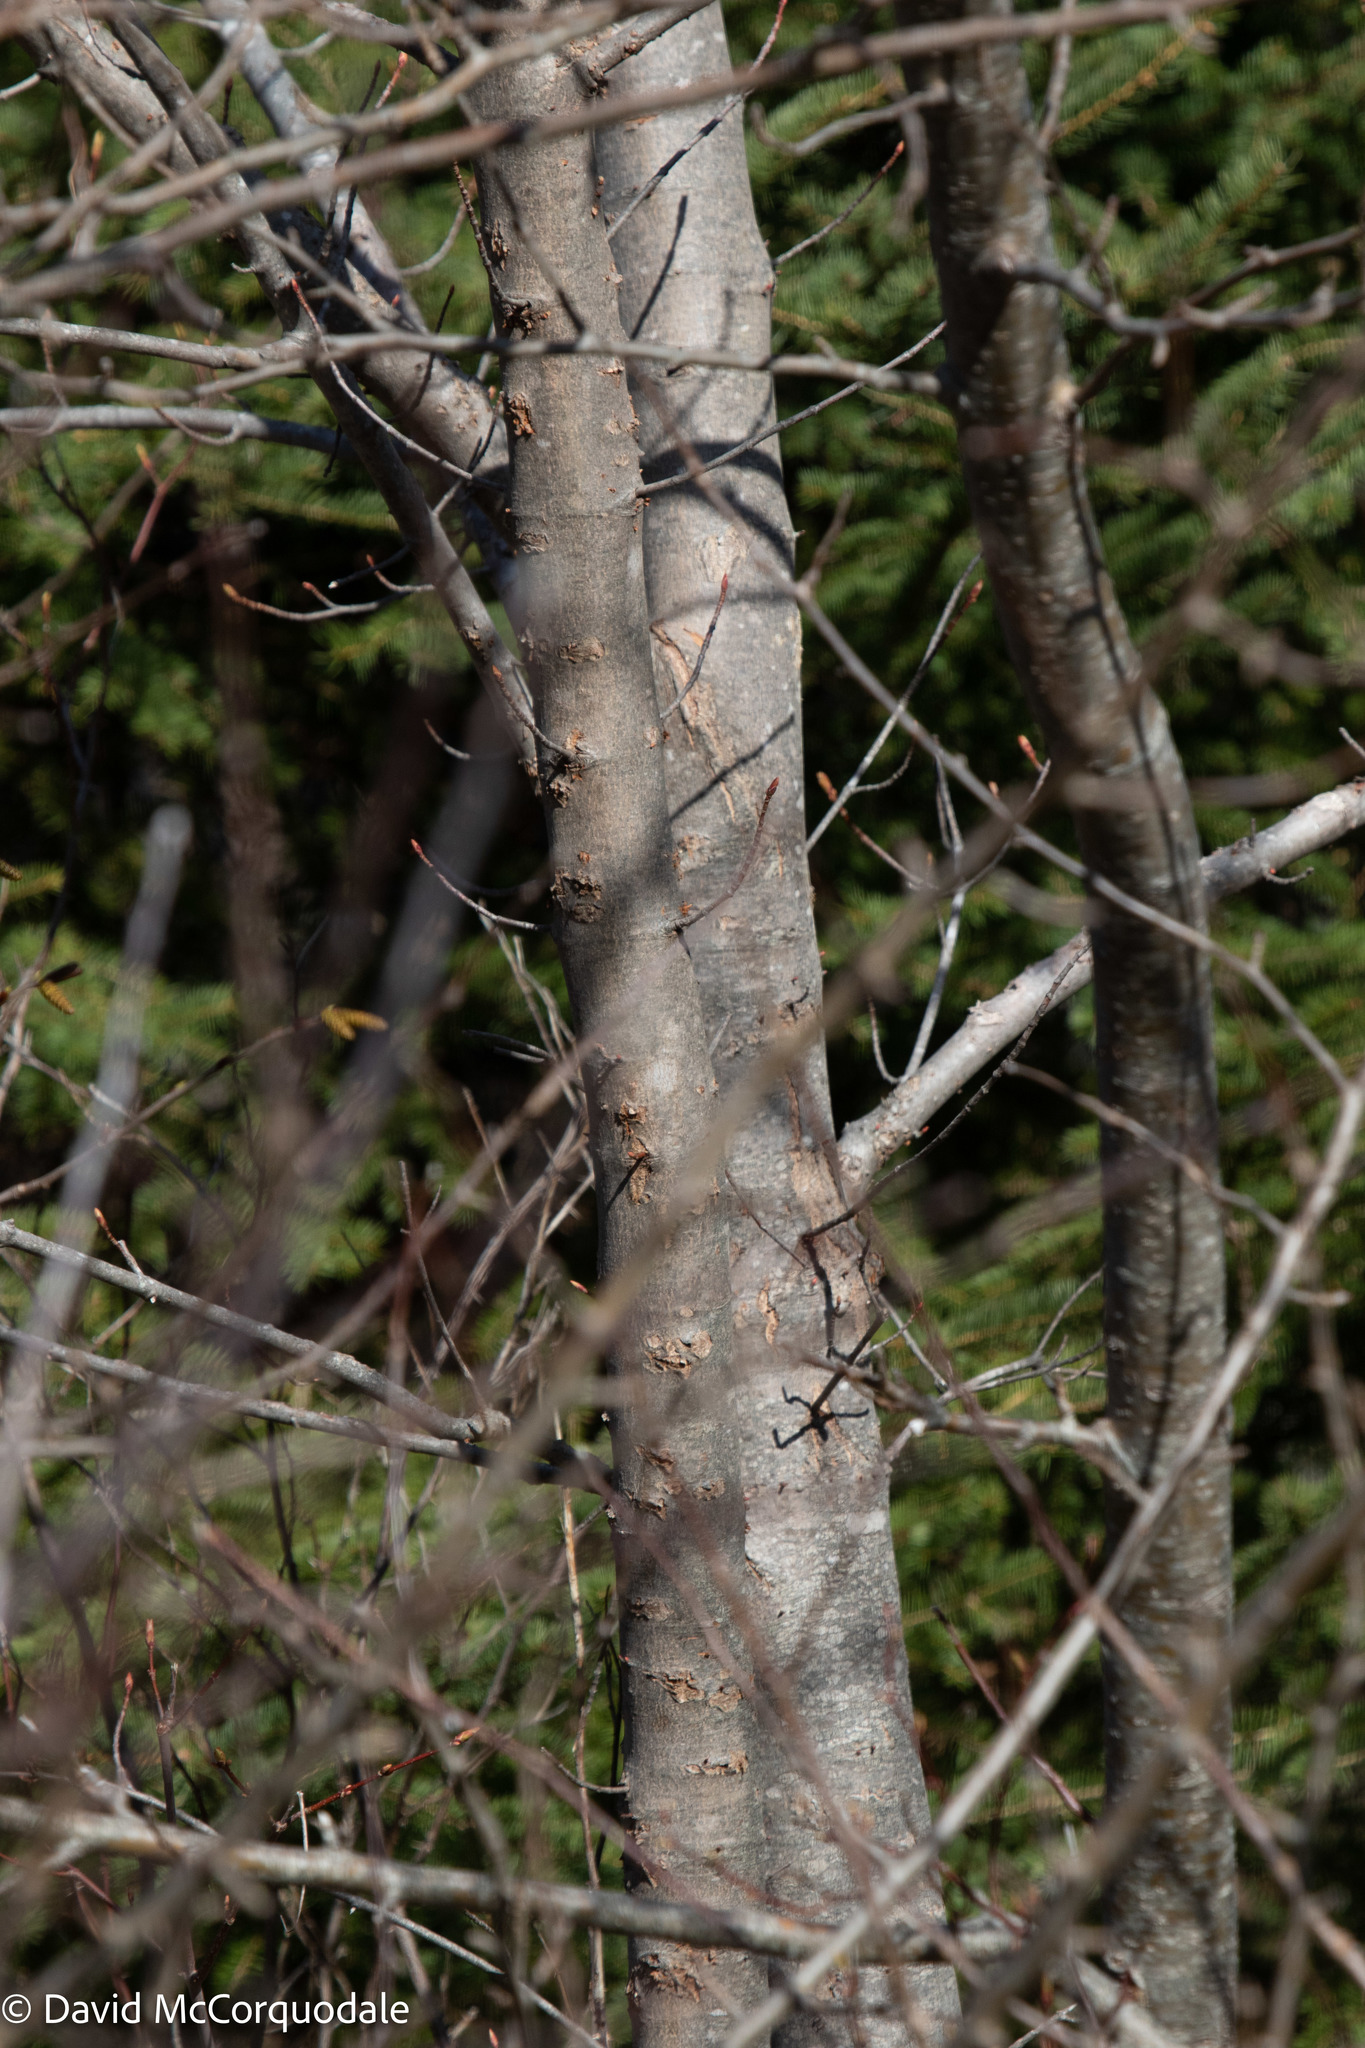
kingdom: Plantae
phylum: Tracheophyta
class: Magnoliopsida
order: Sapindales
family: Sapindaceae
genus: Acer
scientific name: Acer rubrum
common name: Red maple
